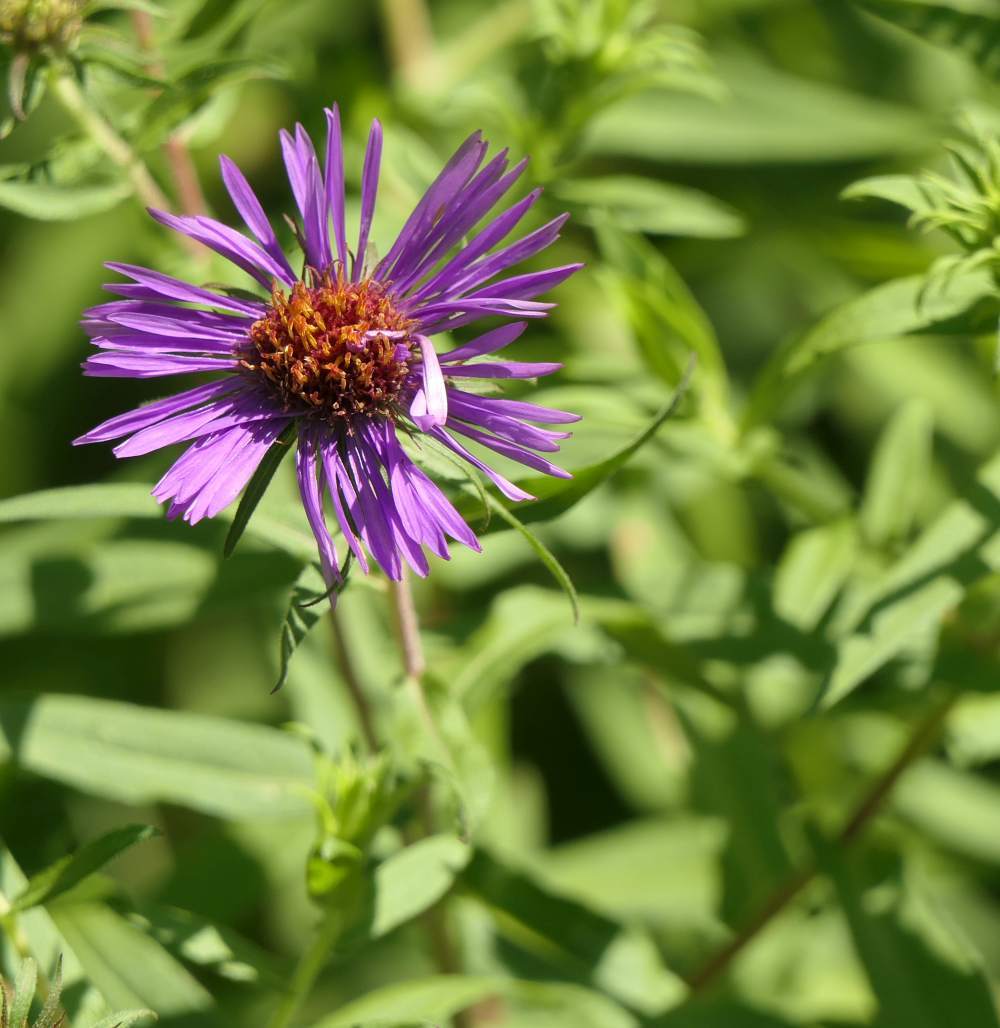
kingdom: Plantae
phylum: Tracheophyta
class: Magnoliopsida
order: Asterales
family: Asteraceae
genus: Symphyotrichum
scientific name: Symphyotrichum novae-angliae
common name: Michaelmas daisy
